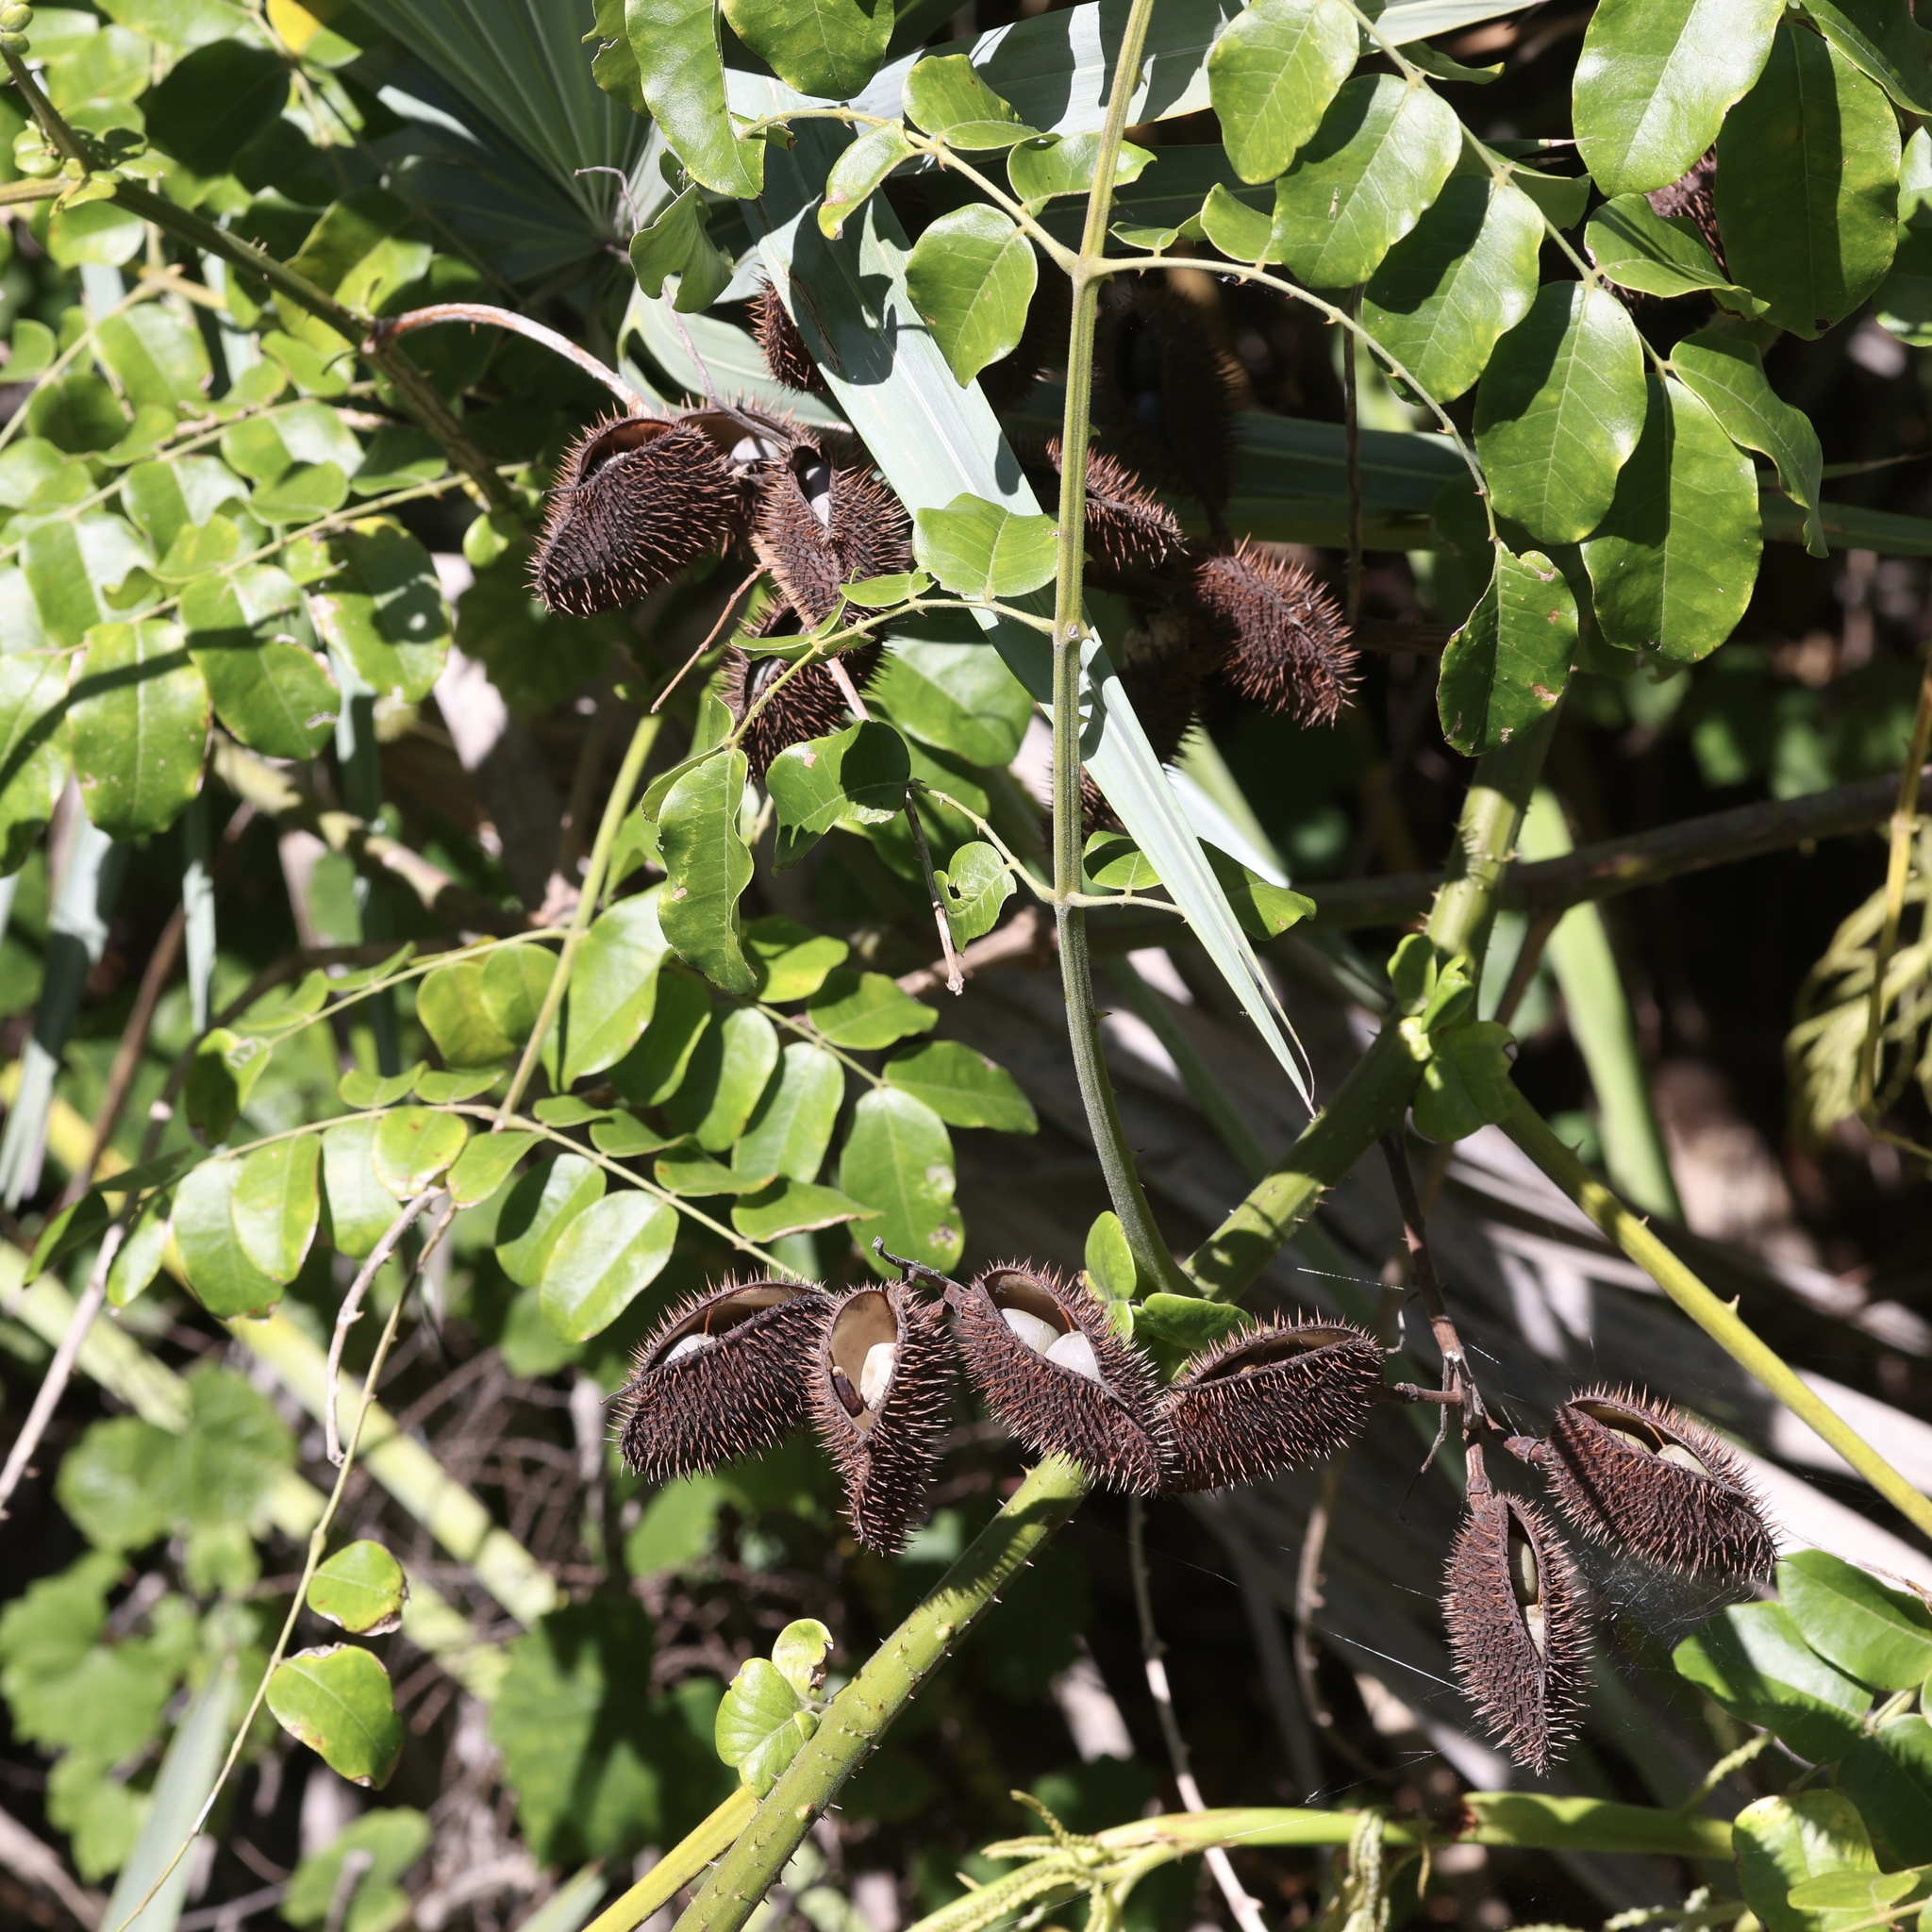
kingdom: Plantae
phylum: Tracheophyta
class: Magnoliopsida
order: Fabales
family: Fabaceae
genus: Guilandina
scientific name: Guilandina bonduc
